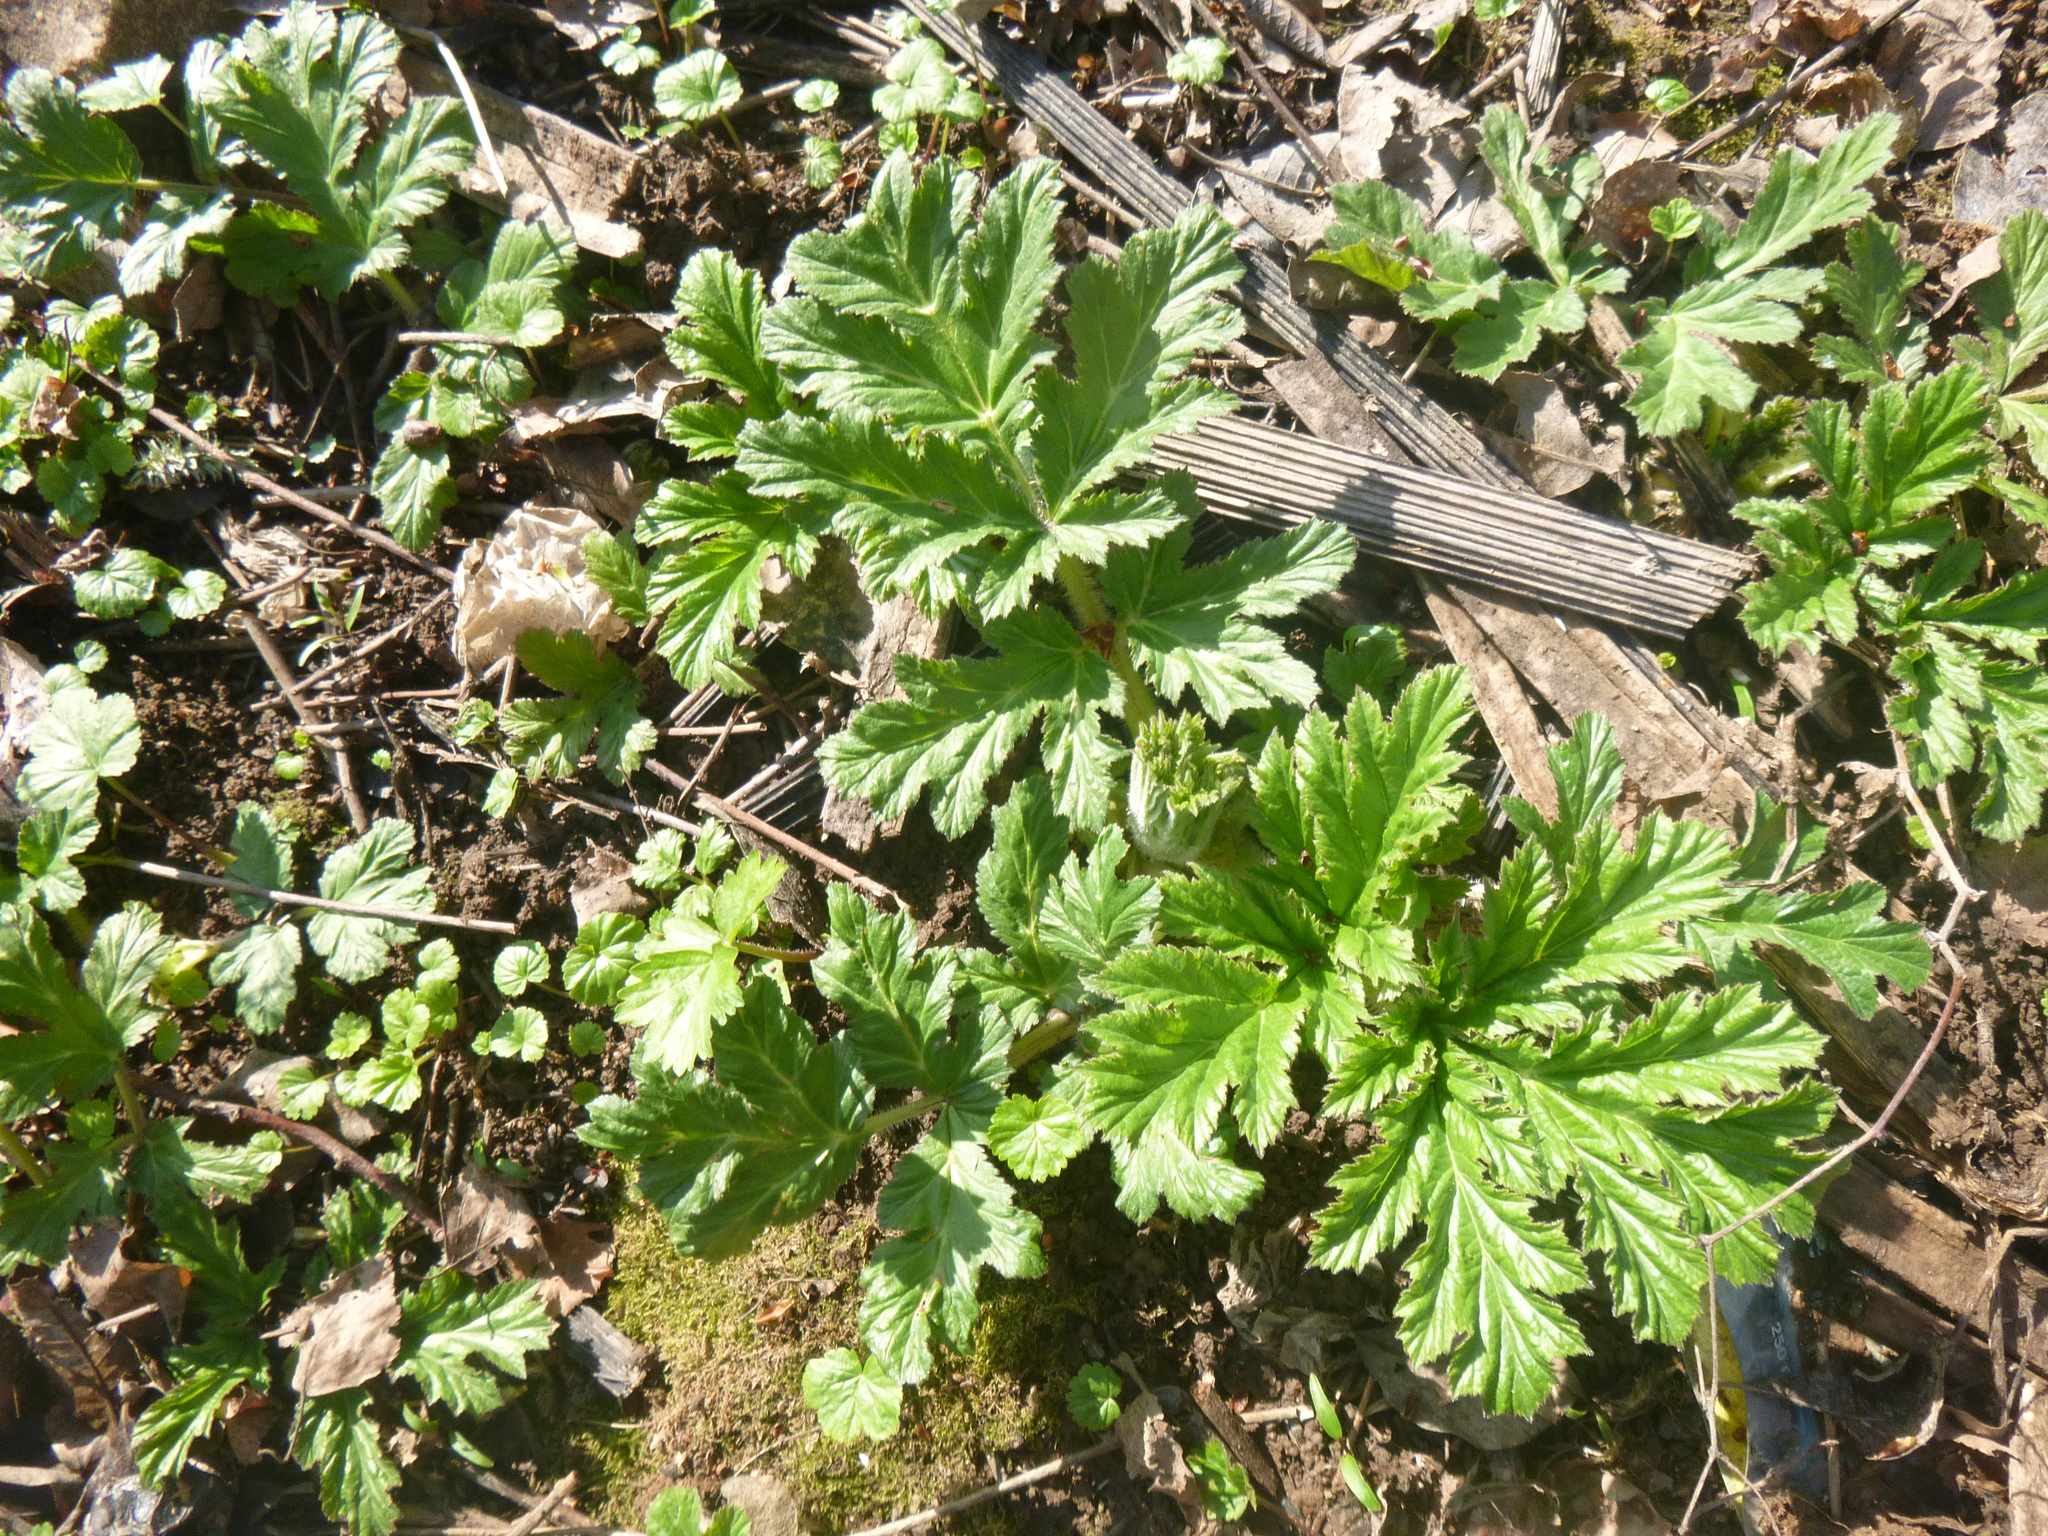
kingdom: Plantae
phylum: Tracheophyta
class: Magnoliopsida
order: Apiales
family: Apiaceae
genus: Heracleum
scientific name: Heracleum sosnowskyi
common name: Sosnowsky's hogweed
